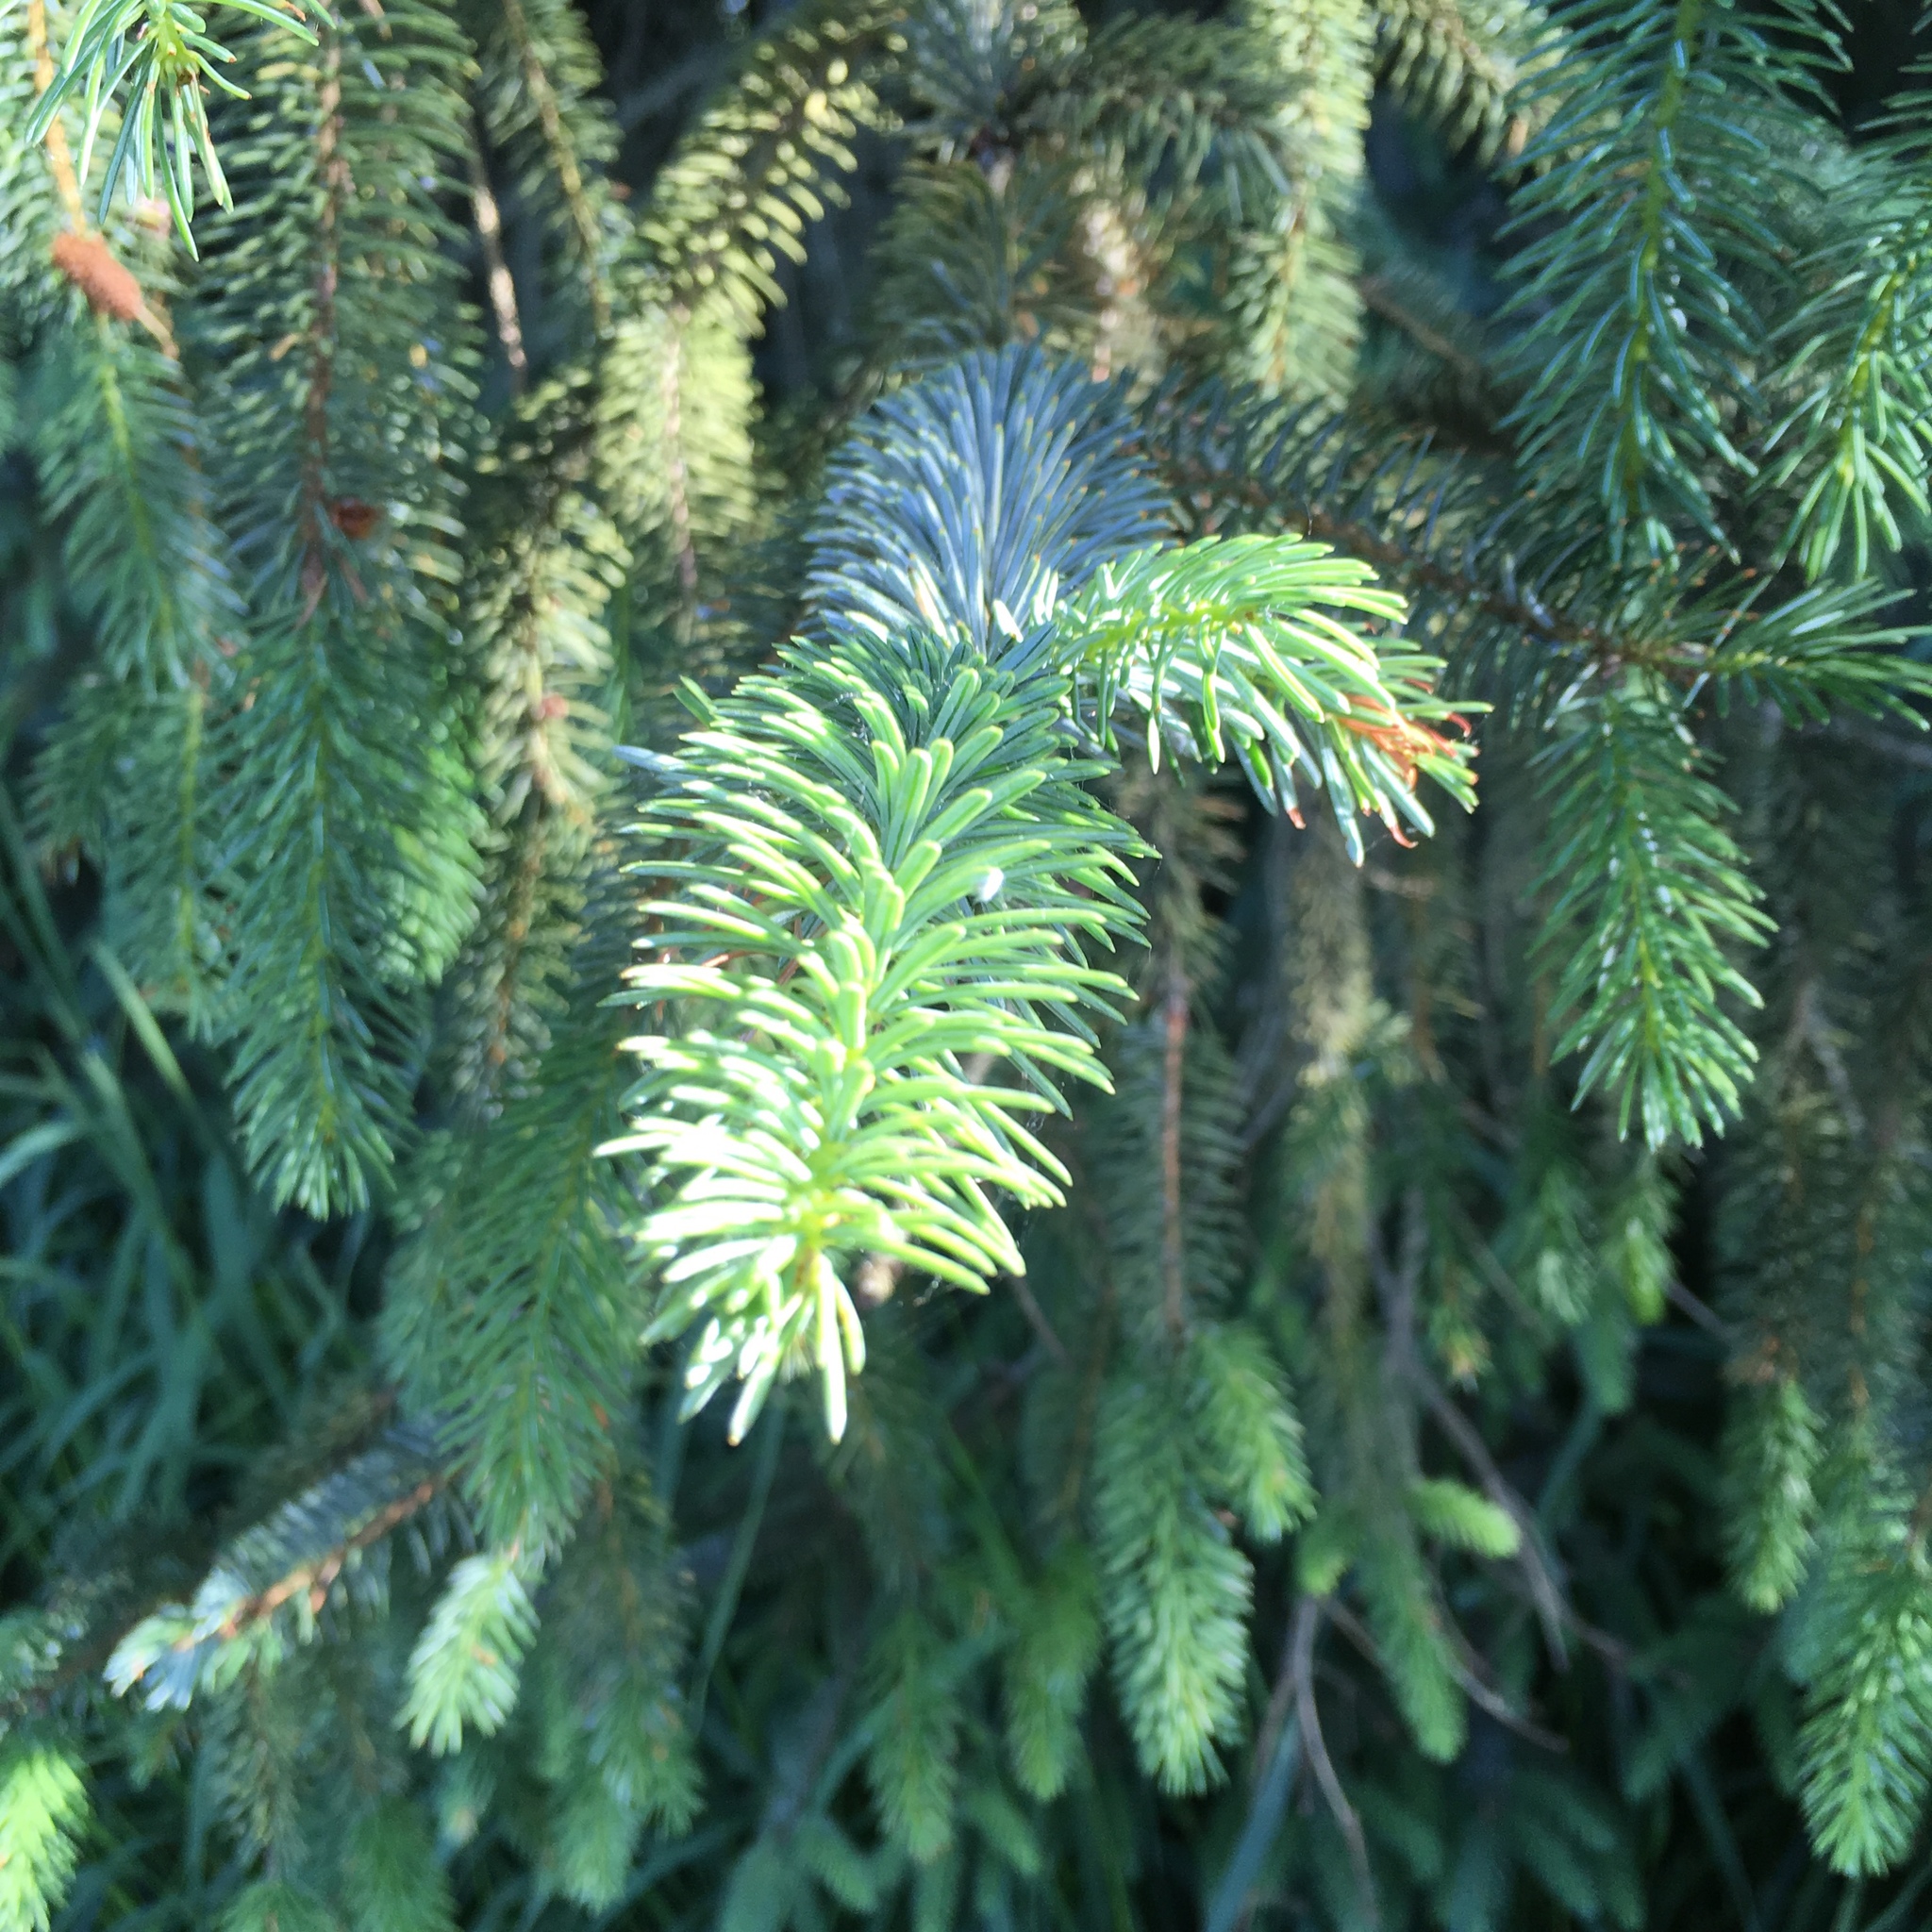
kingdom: Plantae
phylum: Tracheophyta
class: Pinopsida
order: Pinales
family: Pinaceae
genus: Picea
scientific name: Picea sitchensis
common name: Sitka spruce
